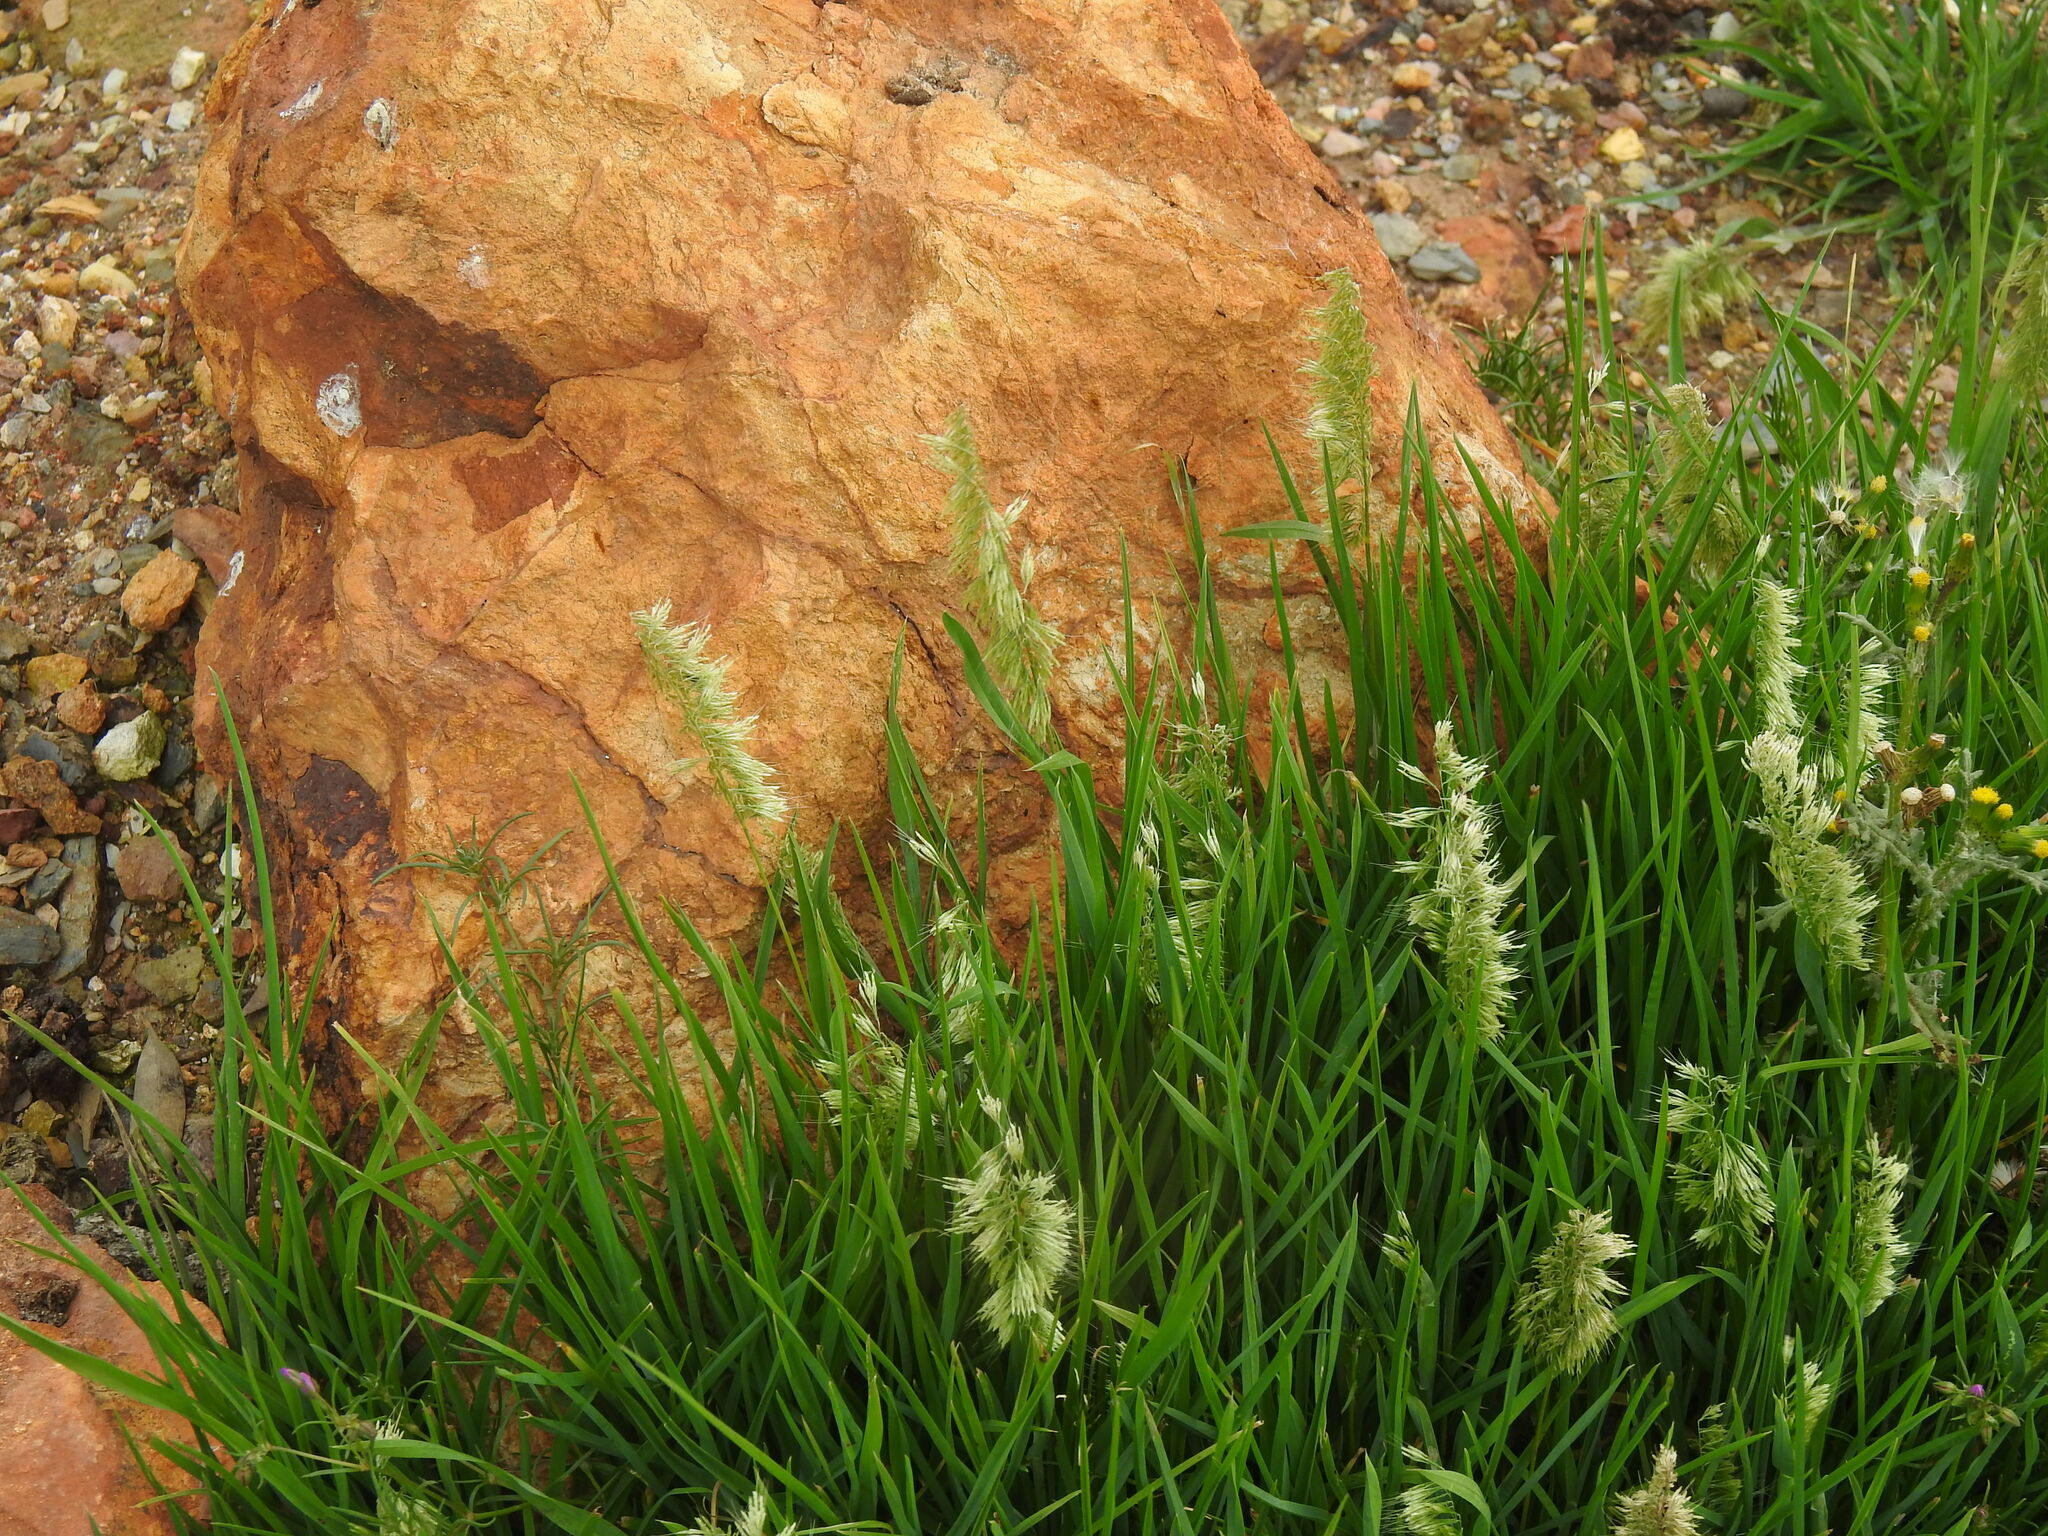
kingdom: Plantae
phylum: Tracheophyta
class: Liliopsida
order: Poales
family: Poaceae
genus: Lamarckia
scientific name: Lamarckia aurea
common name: Golden dog's-tail
